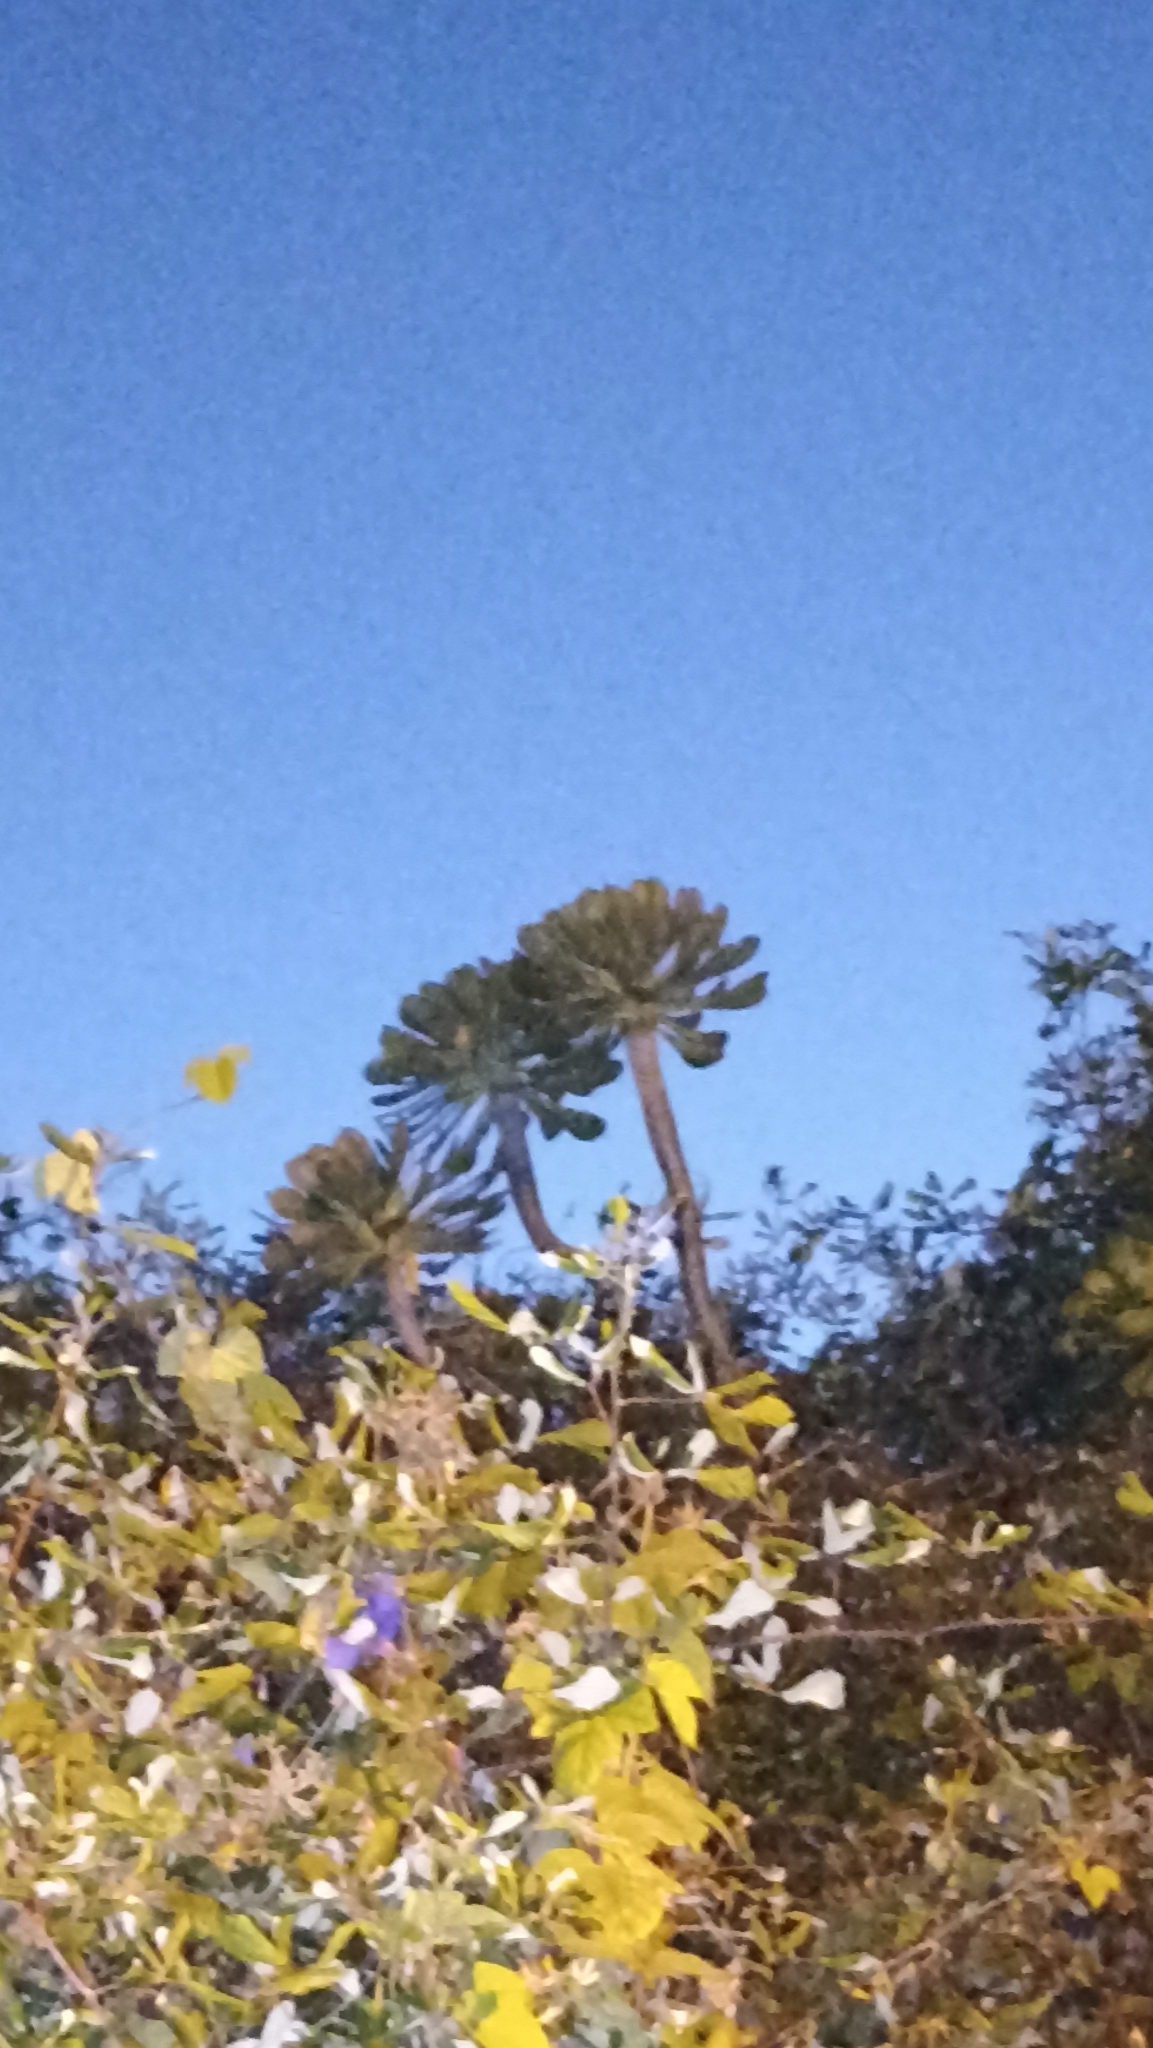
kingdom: Plantae
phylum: Tracheophyta
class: Magnoliopsida
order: Saxifragales
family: Crassulaceae
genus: Aeonium
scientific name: Aeonium urbicum
